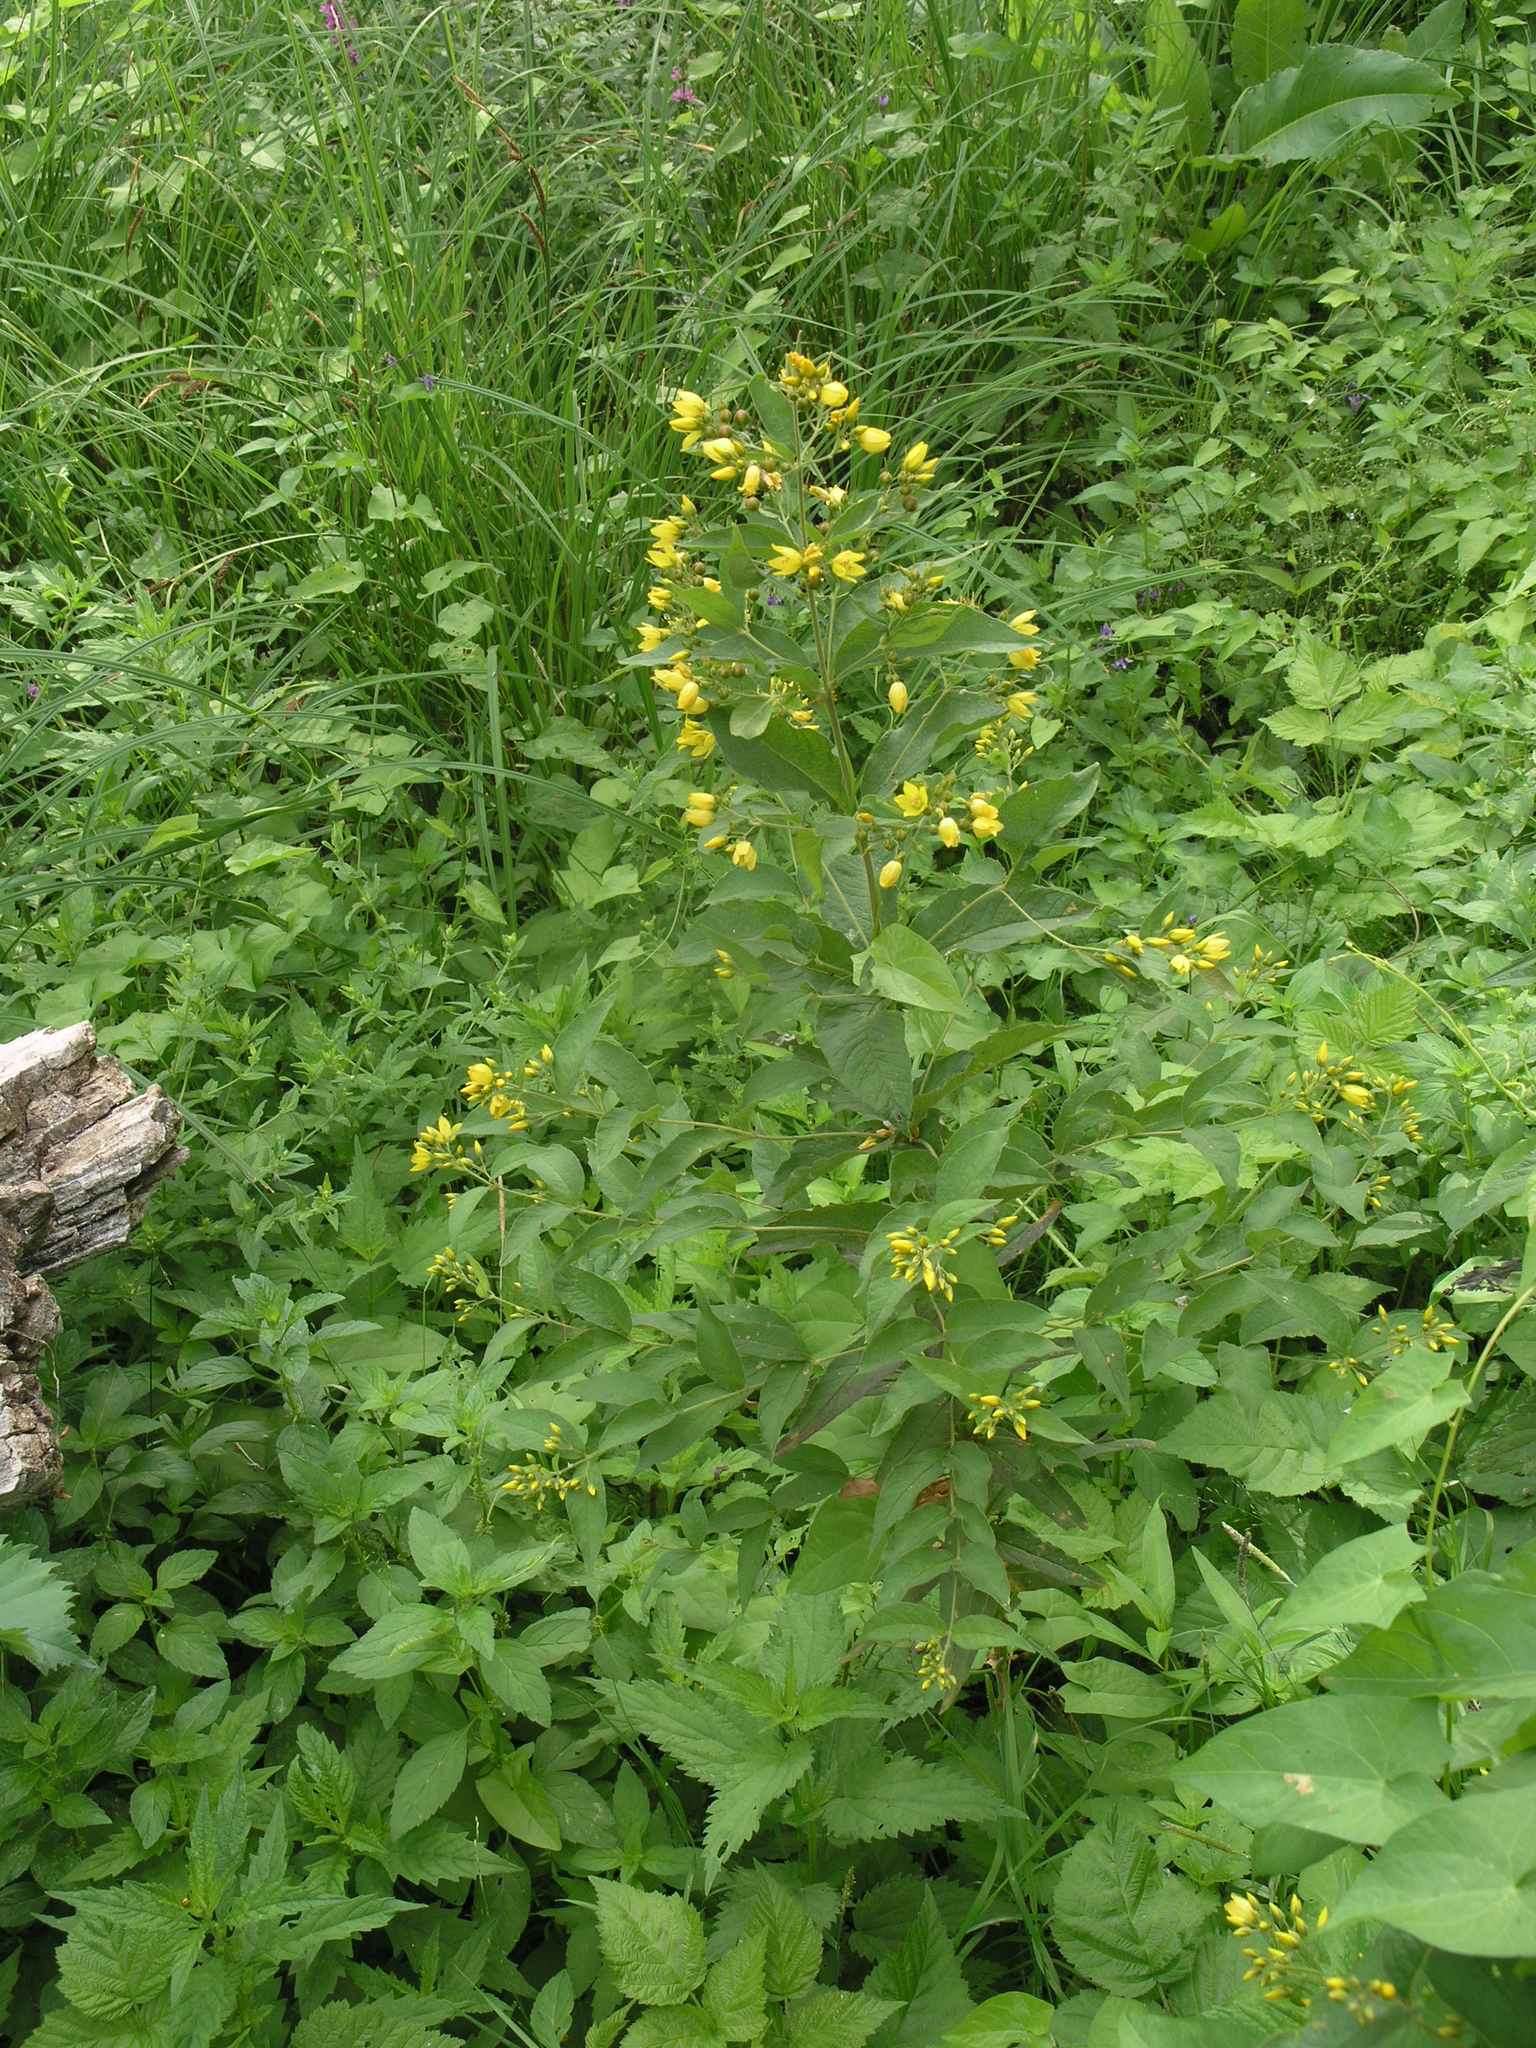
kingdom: Plantae
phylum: Tracheophyta
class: Magnoliopsida
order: Ericales
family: Primulaceae
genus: Lysimachia
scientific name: Lysimachia vulgaris
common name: Yellow loosestrife
